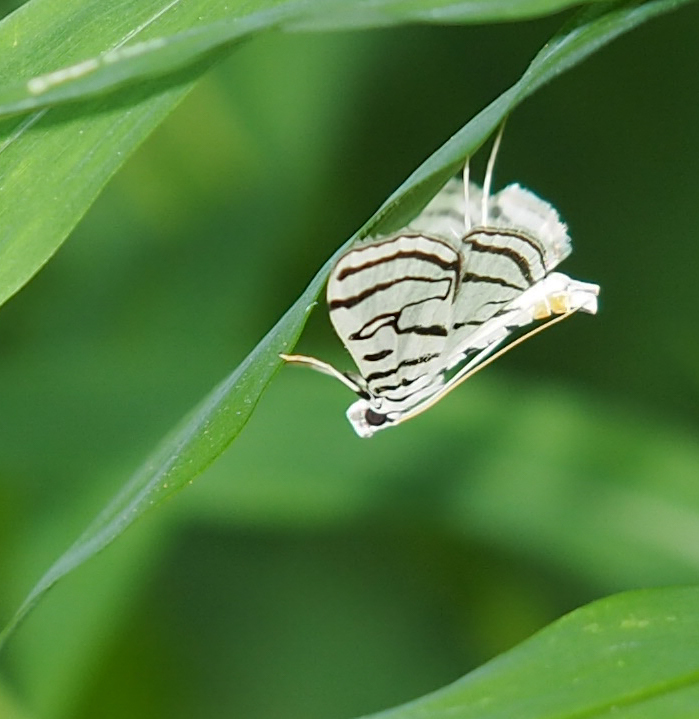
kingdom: Animalia
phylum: Arthropoda
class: Insecta
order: Lepidoptera
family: Crambidae
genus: Conchylodes
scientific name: Conchylodes ovulalis
